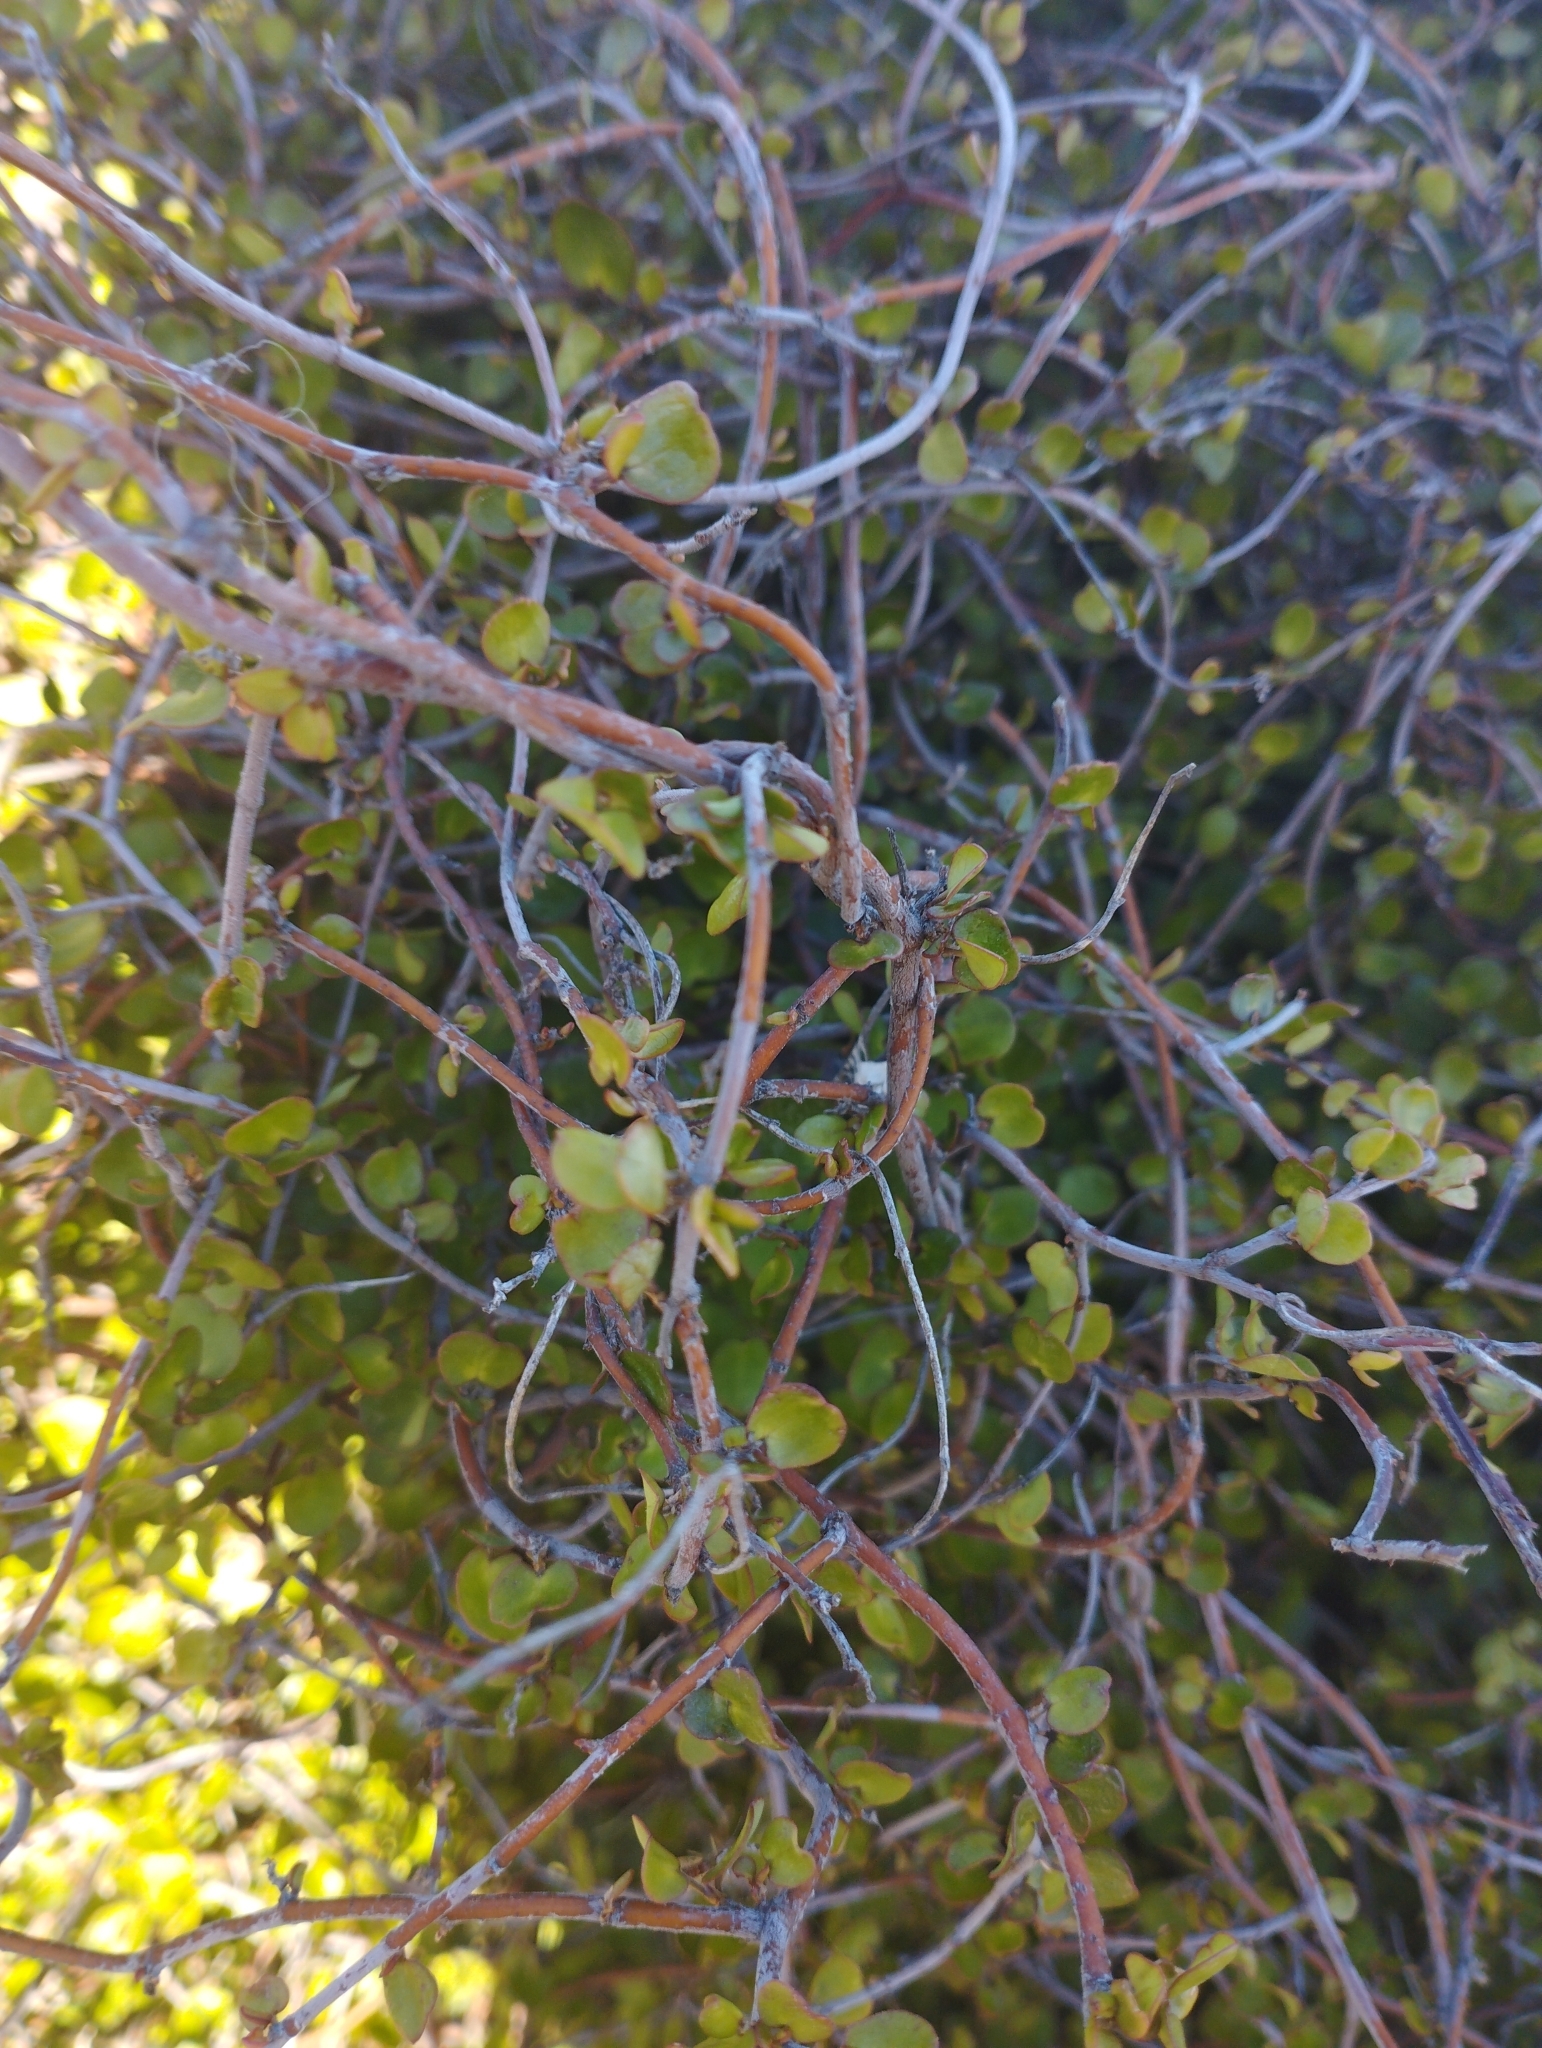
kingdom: Plantae
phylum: Tracheophyta
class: Magnoliopsida
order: Caryophyllales
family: Polygonaceae
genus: Muehlenbeckia
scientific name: Muehlenbeckia complexa
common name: Wireplant
